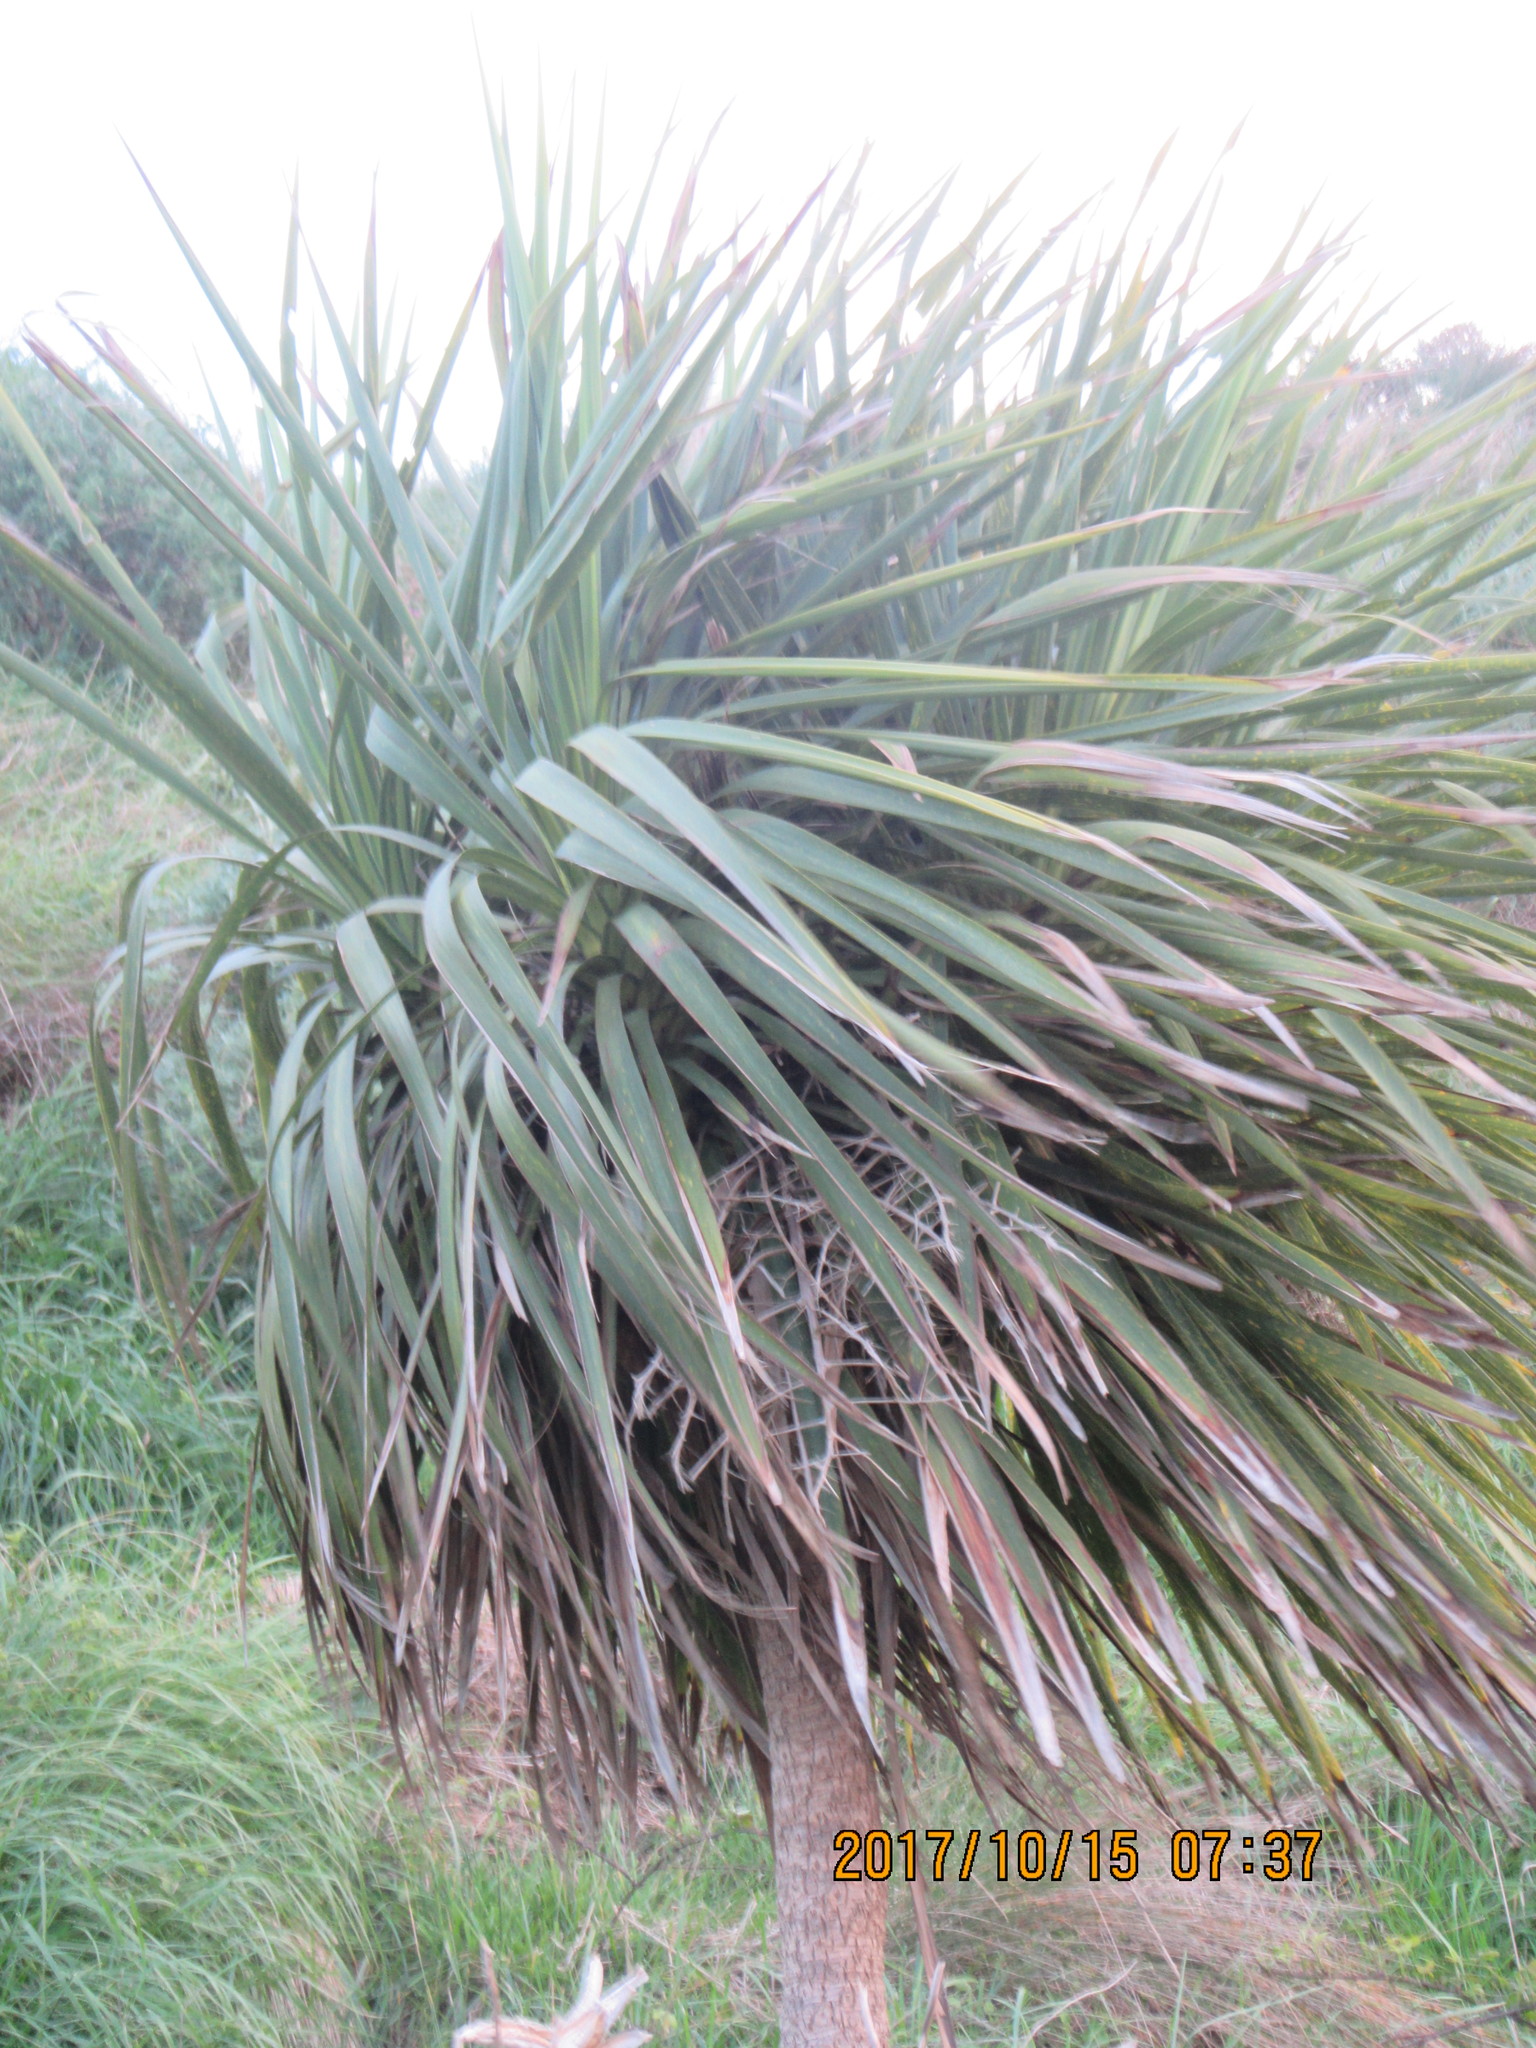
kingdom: Plantae
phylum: Tracheophyta
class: Liliopsida
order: Asparagales
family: Asparagaceae
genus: Cordyline
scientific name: Cordyline australis
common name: Cabbage-palm
